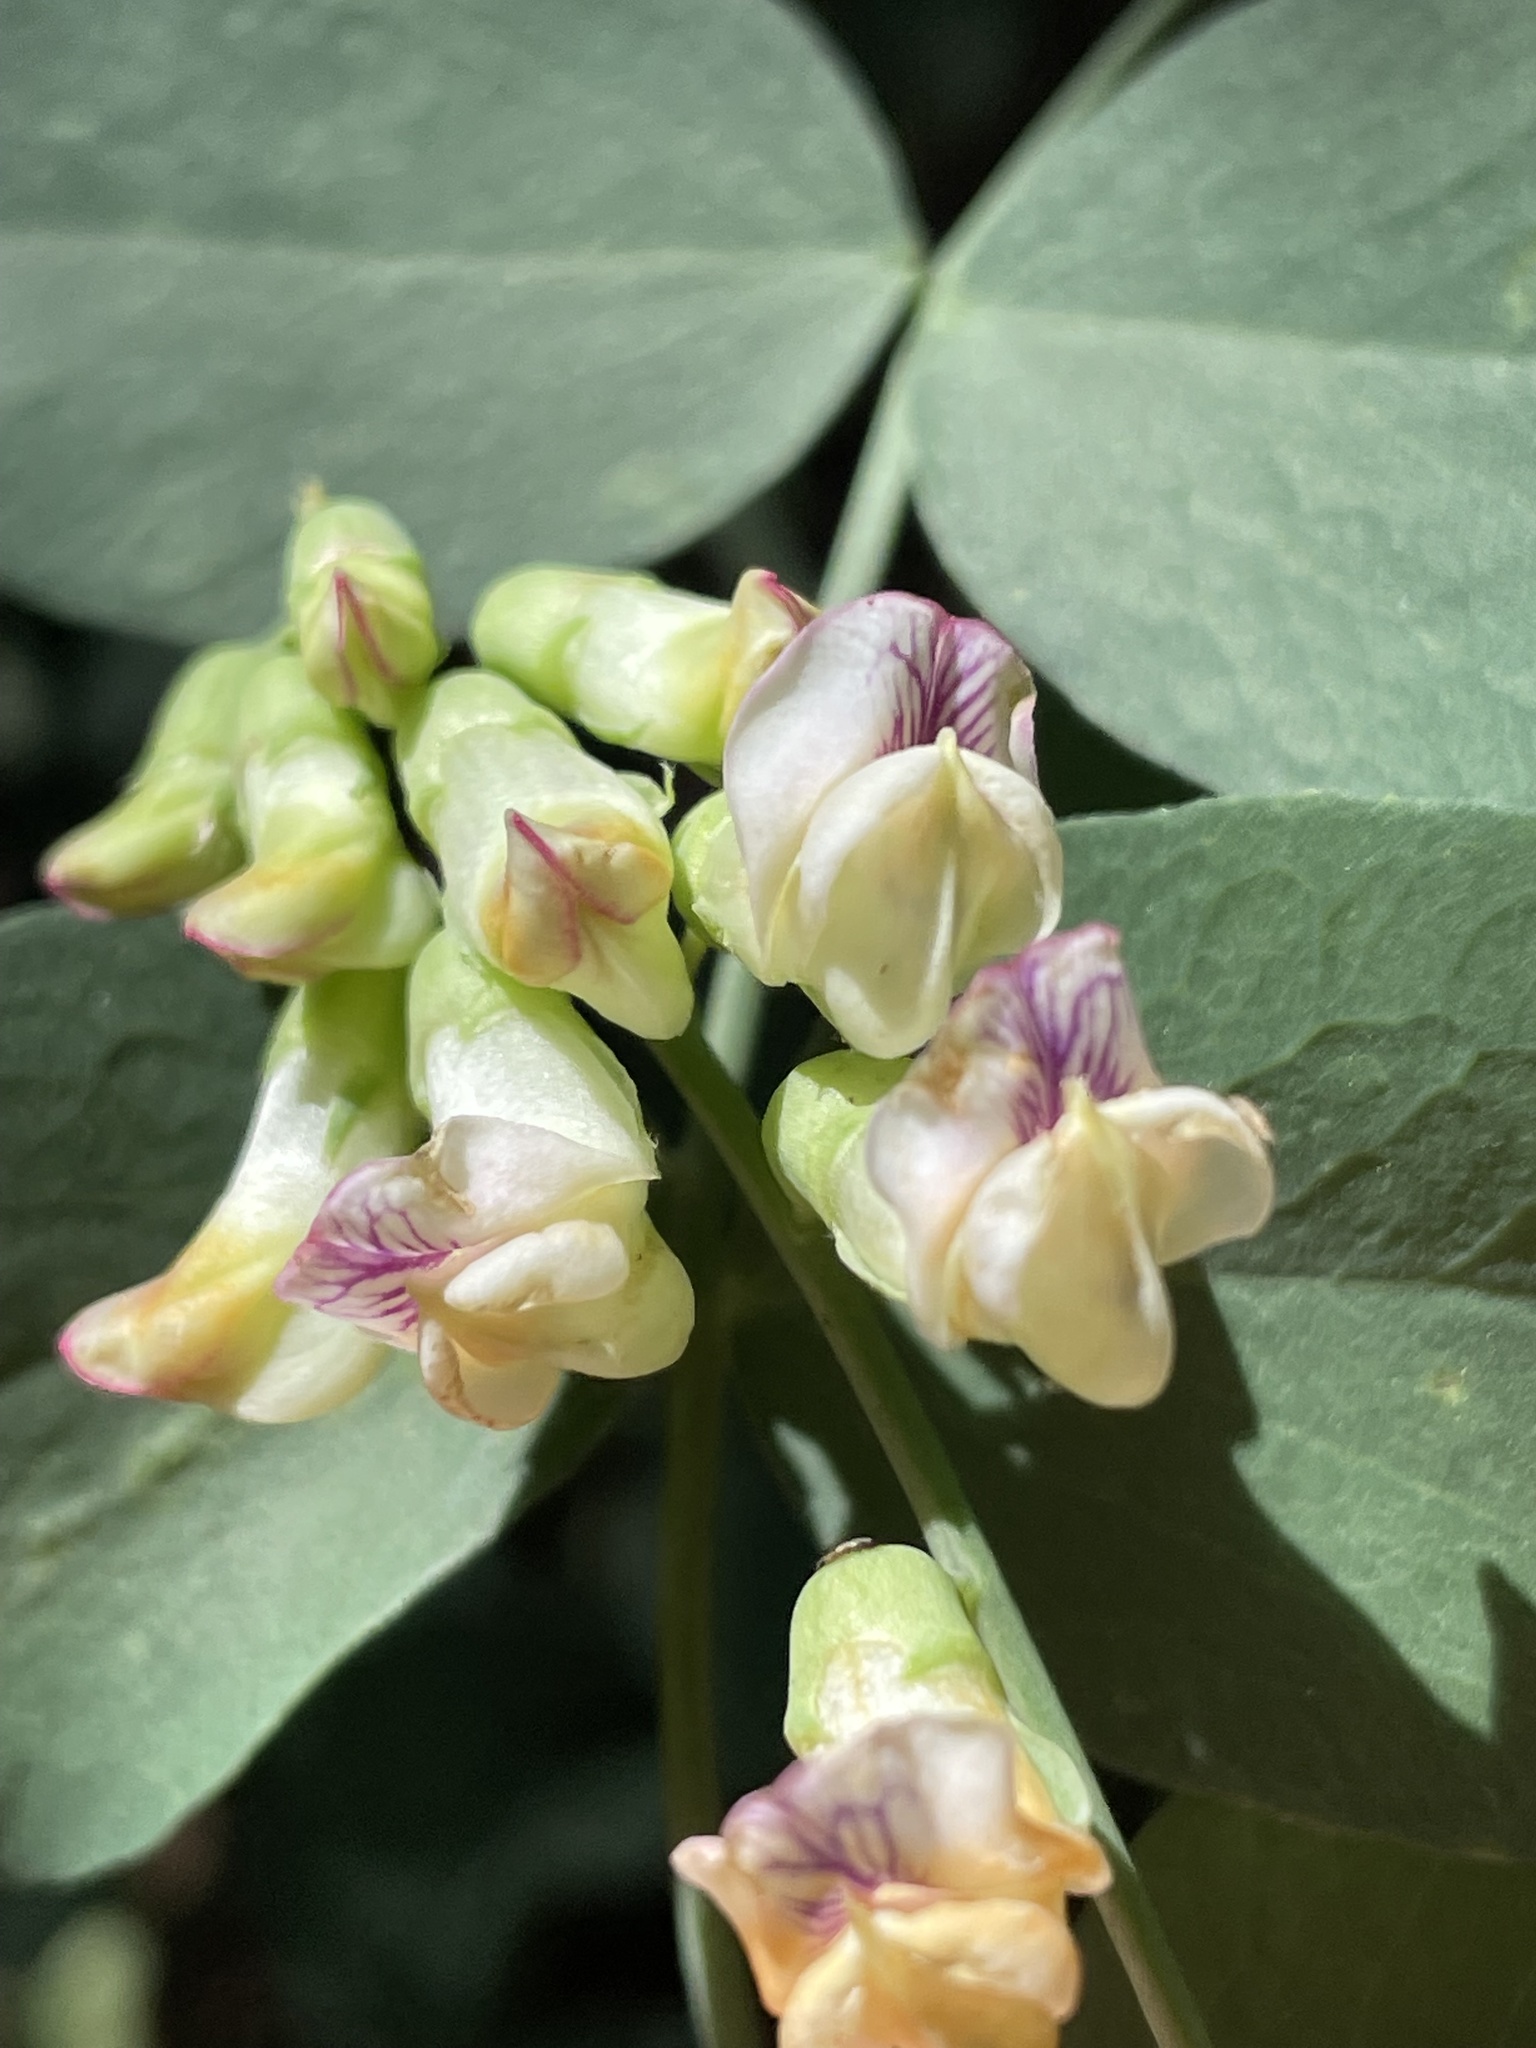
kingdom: Plantae
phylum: Tracheophyta
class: Magnoliopsida
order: Fabales
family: Fabaceae
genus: Lathyrus
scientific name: Lathyrus sulphureus
